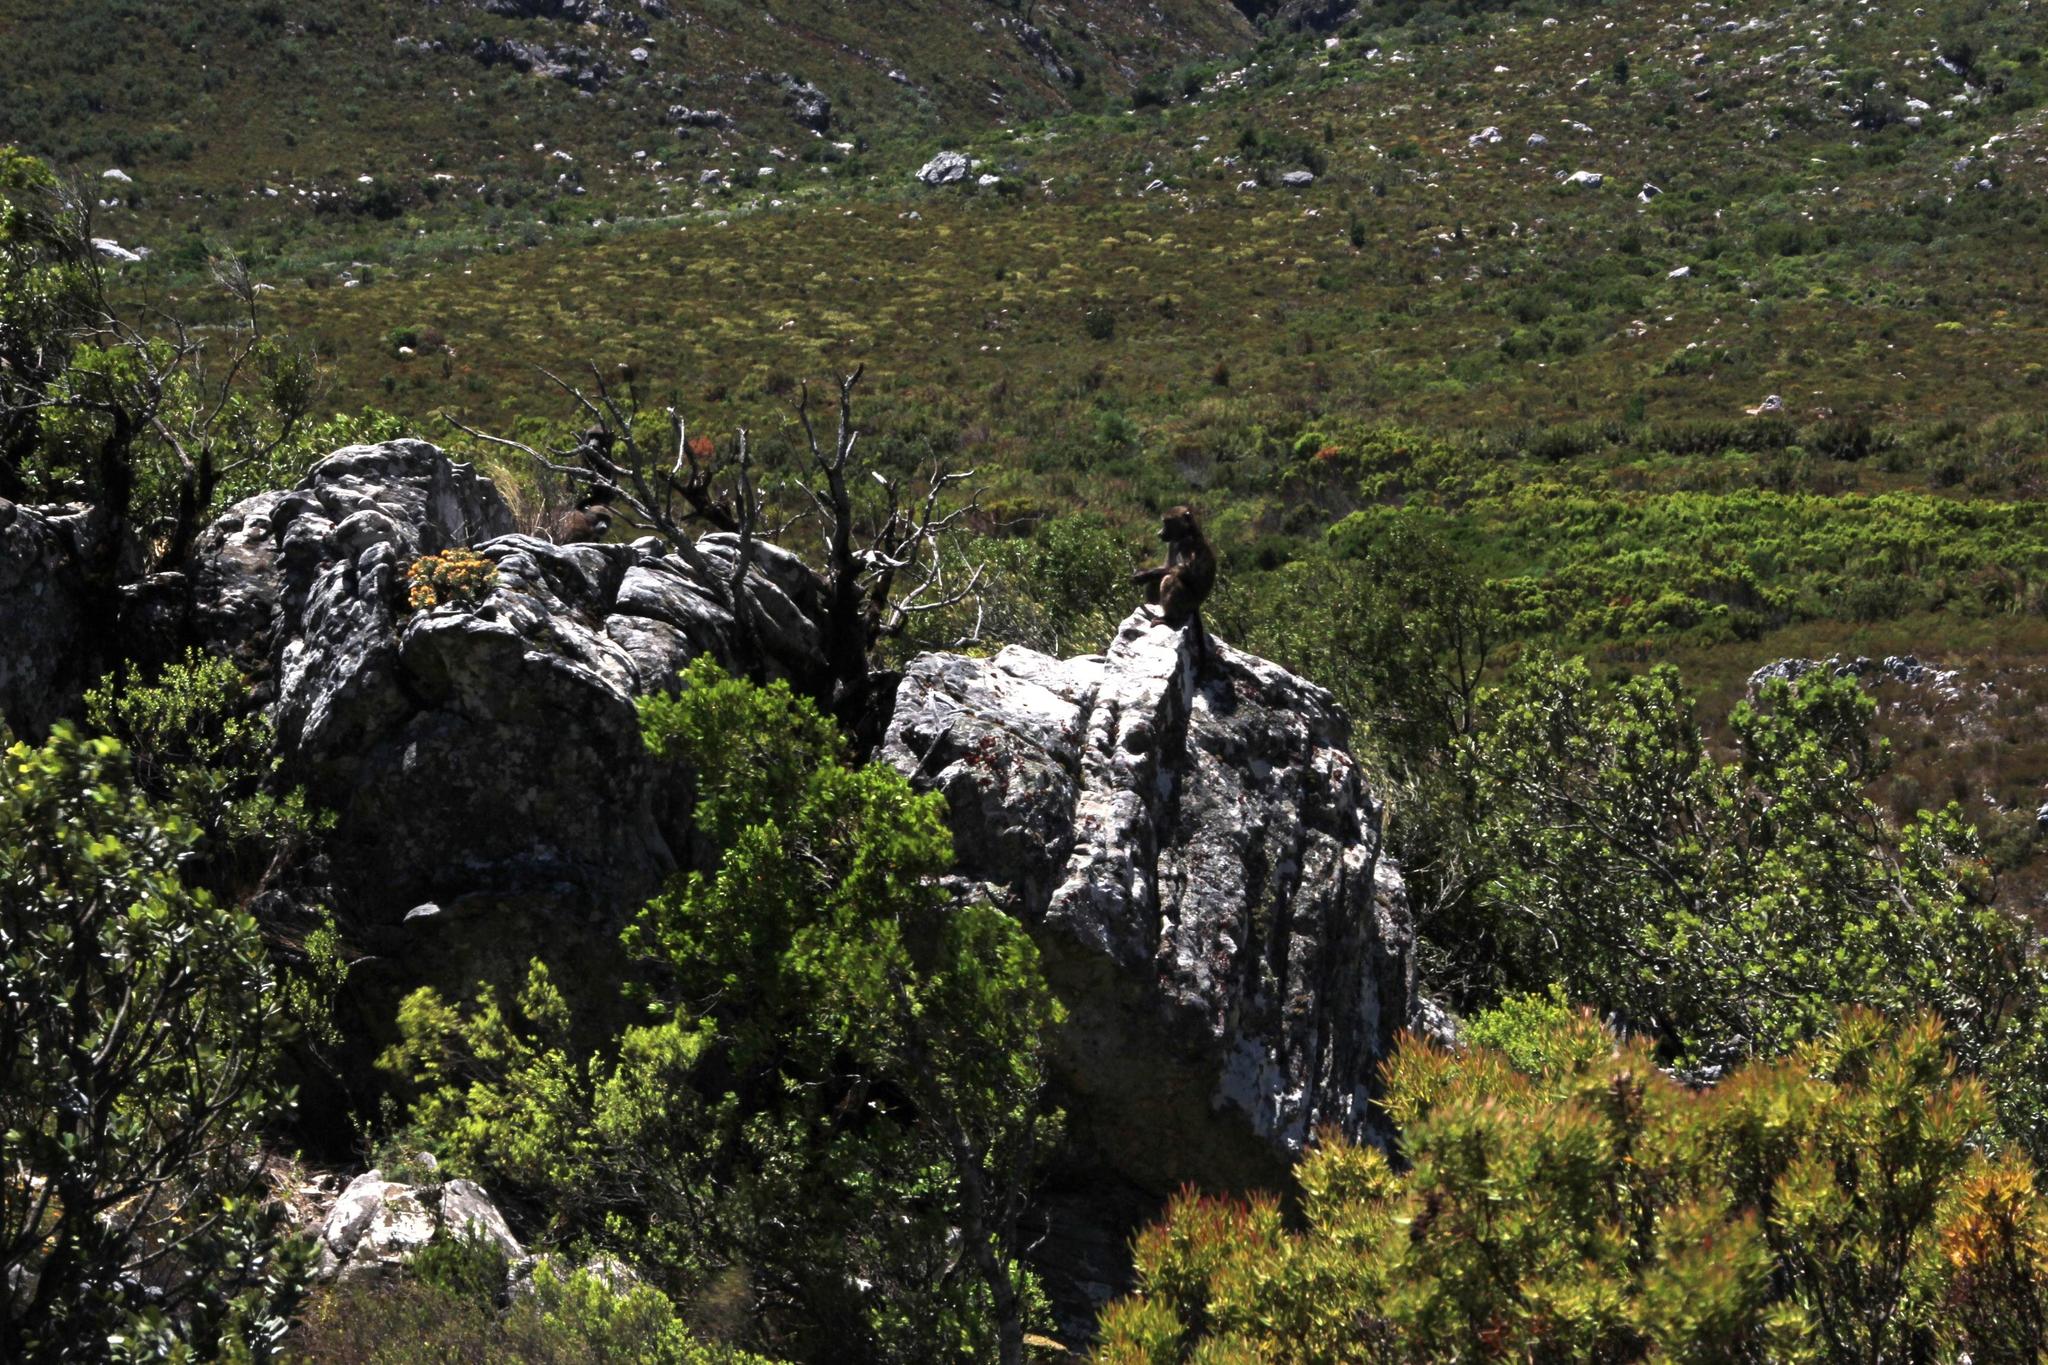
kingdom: Animalia
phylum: Chordata
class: Mammalia
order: Primates
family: Cercopithecidae
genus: Papio
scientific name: Papio ursinus
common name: Chacma baboon
